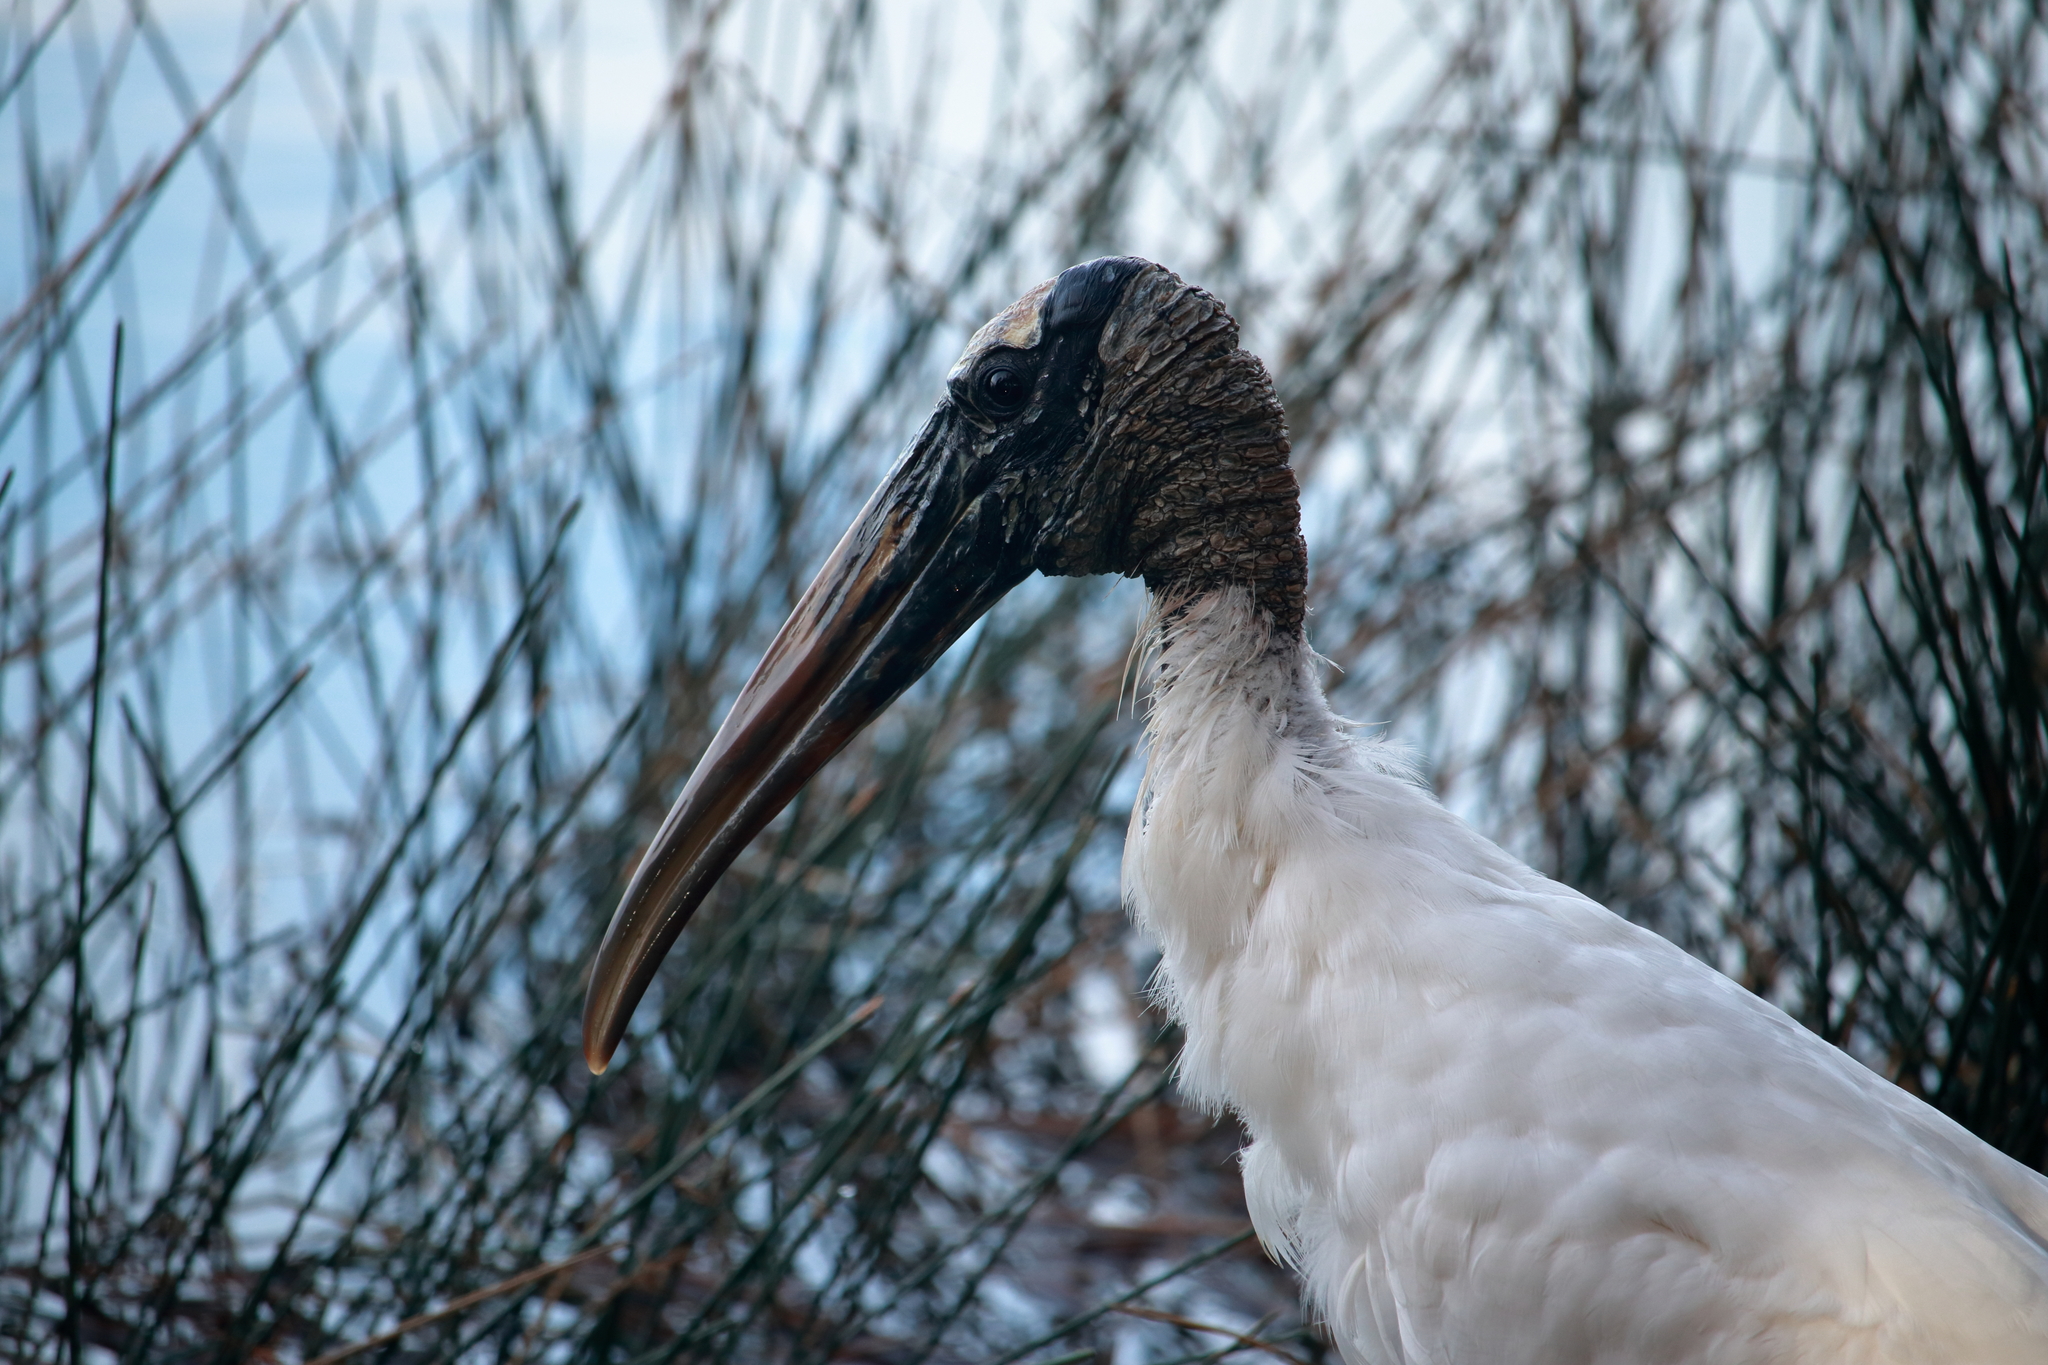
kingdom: Animalia
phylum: Chordata
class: Aves
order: Ciconiiformes
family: Ciconiidae
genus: Mycteria
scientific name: Mycteria americana
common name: Wood stork
